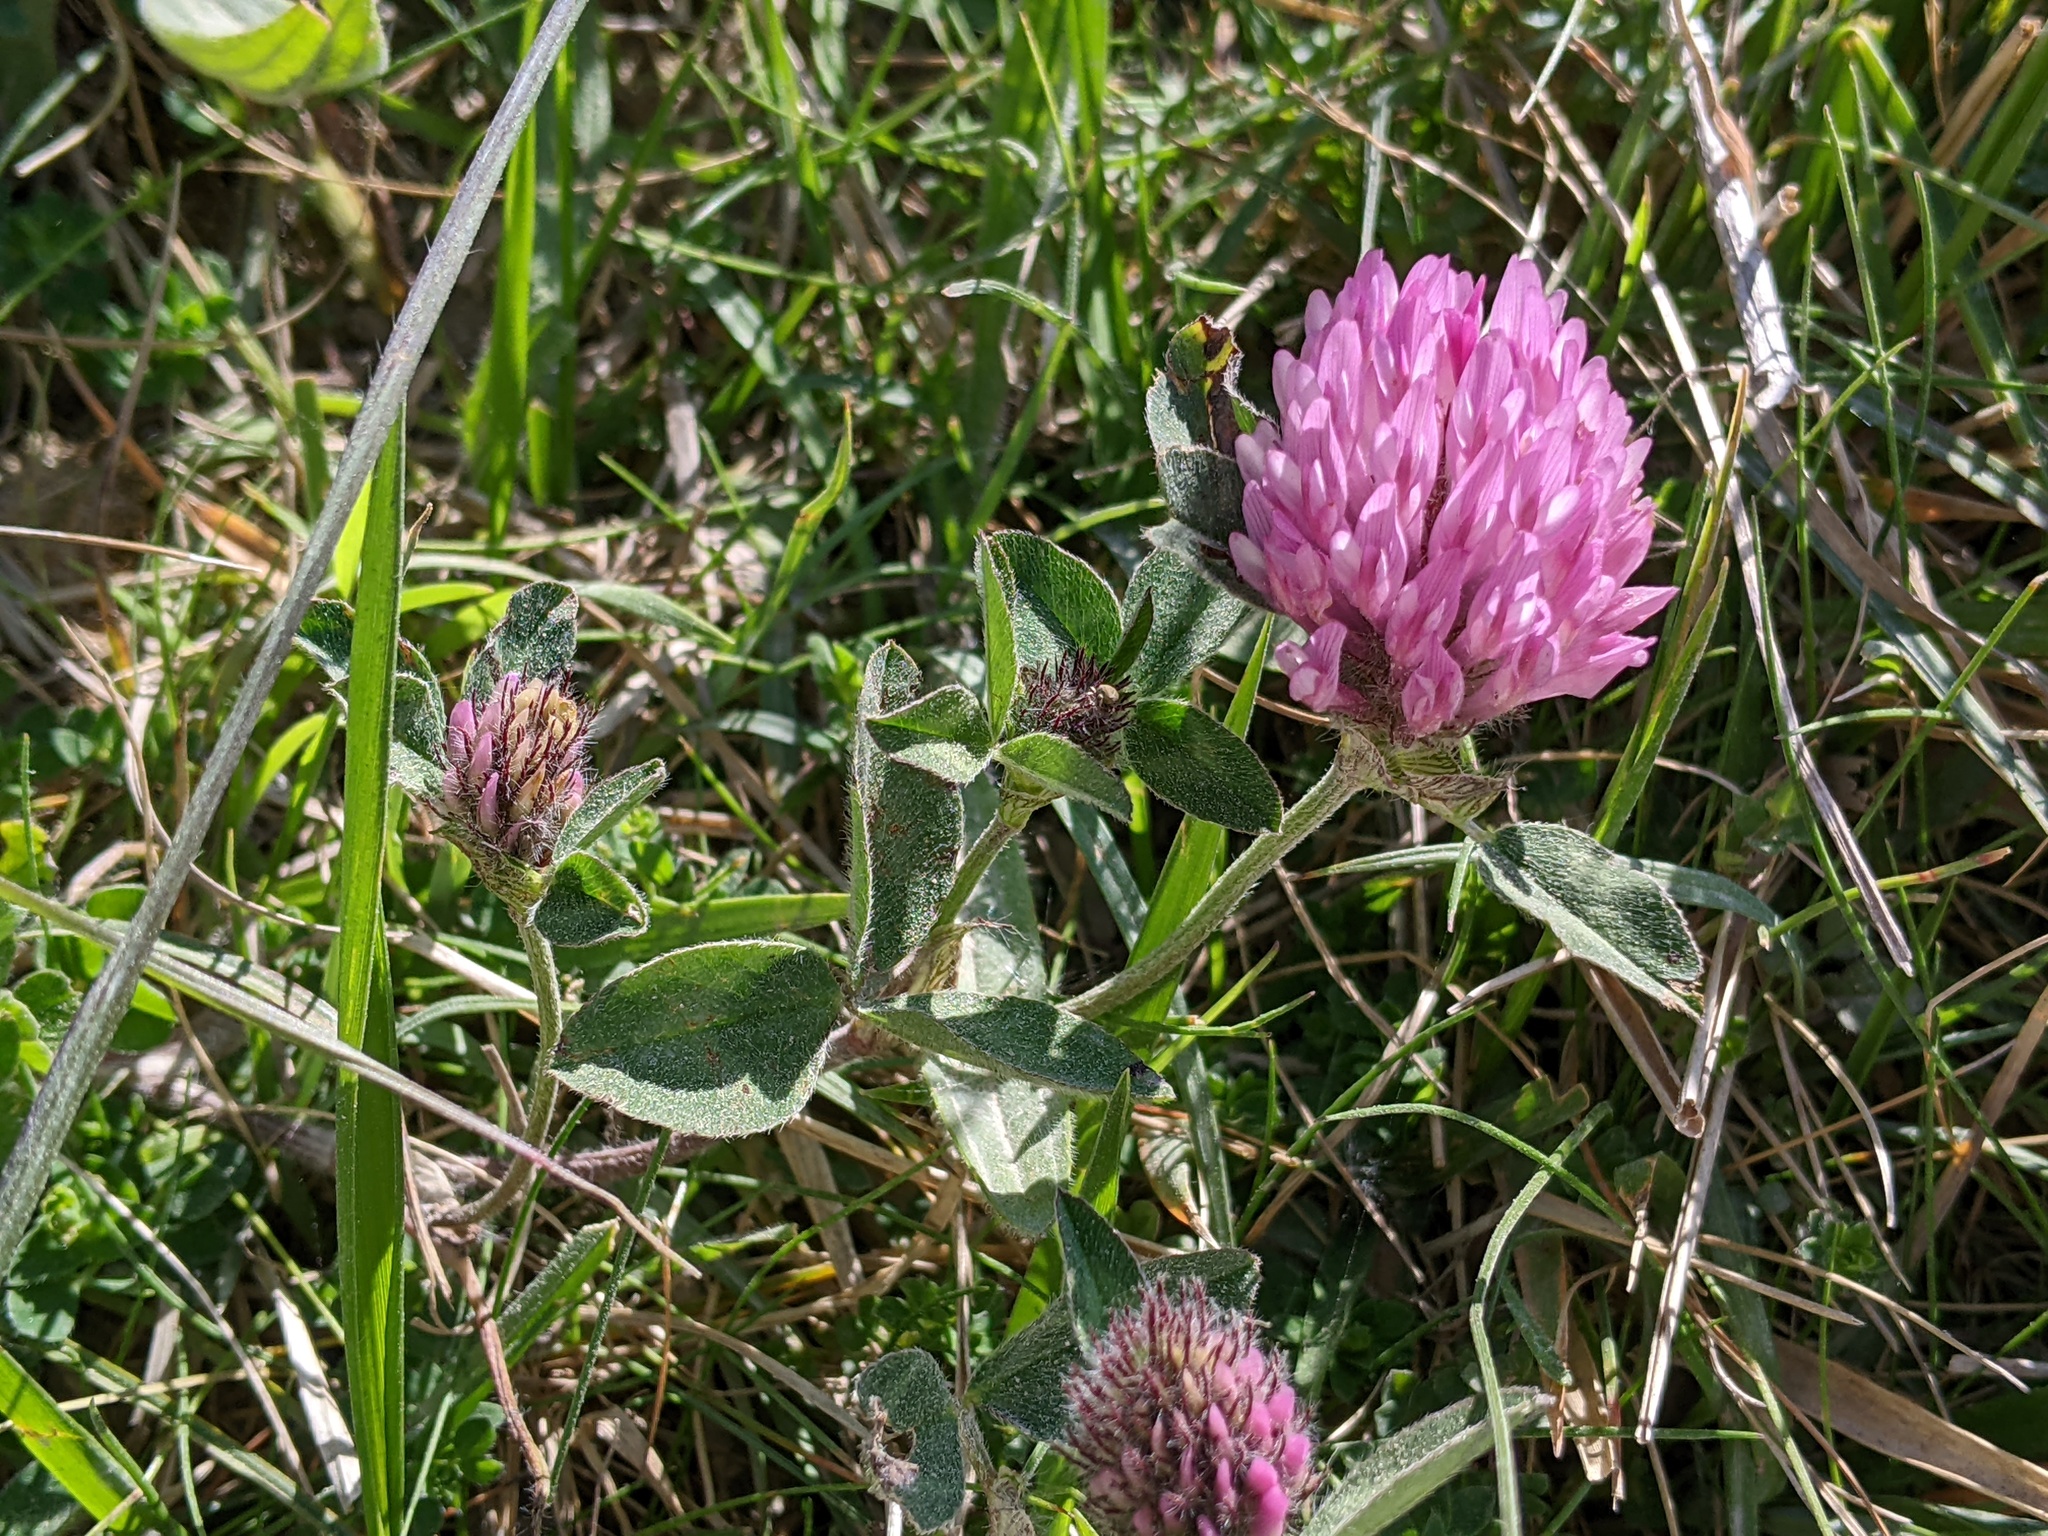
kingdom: Plantae
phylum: Tracheophyta
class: Magnoliopsida
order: Fabales
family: Fabaceae
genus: Trifolium
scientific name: Trifolium pratense
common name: Red clover
